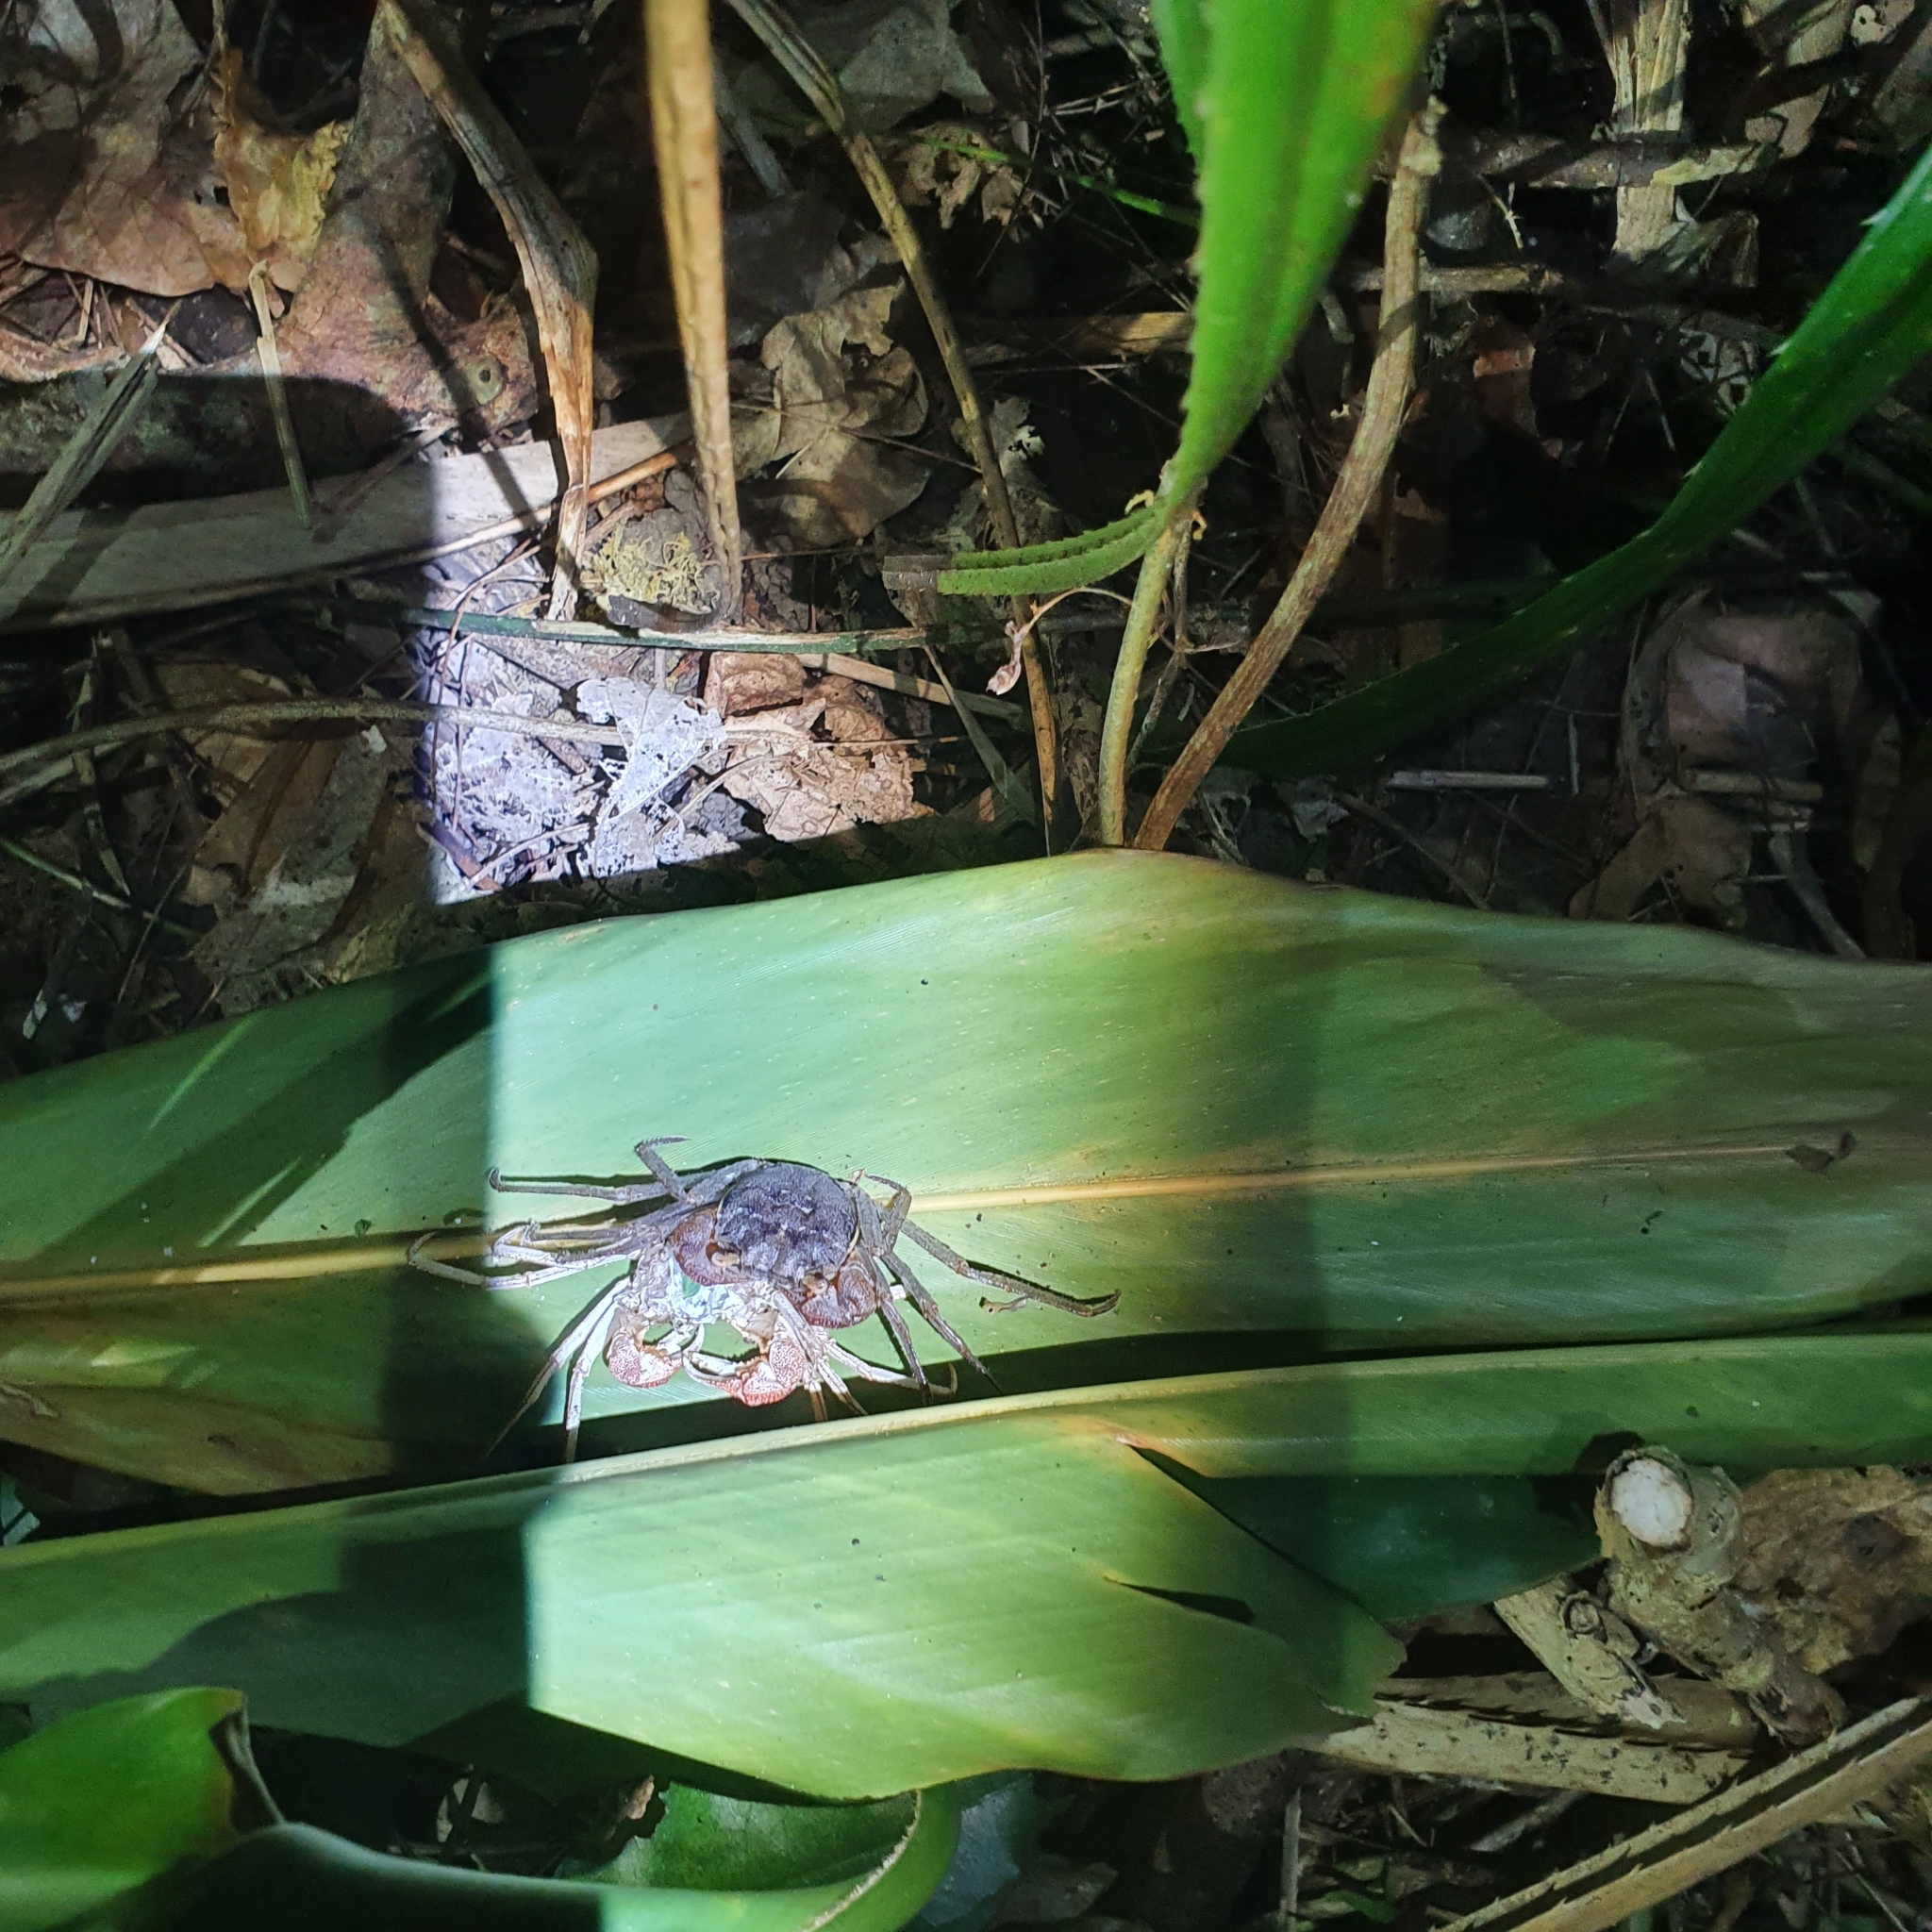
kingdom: Animalia
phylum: Arthropoda
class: Malacostraca
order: Decapoda
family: Sesarmidae
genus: Scandarma
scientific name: Scandarma lintou
